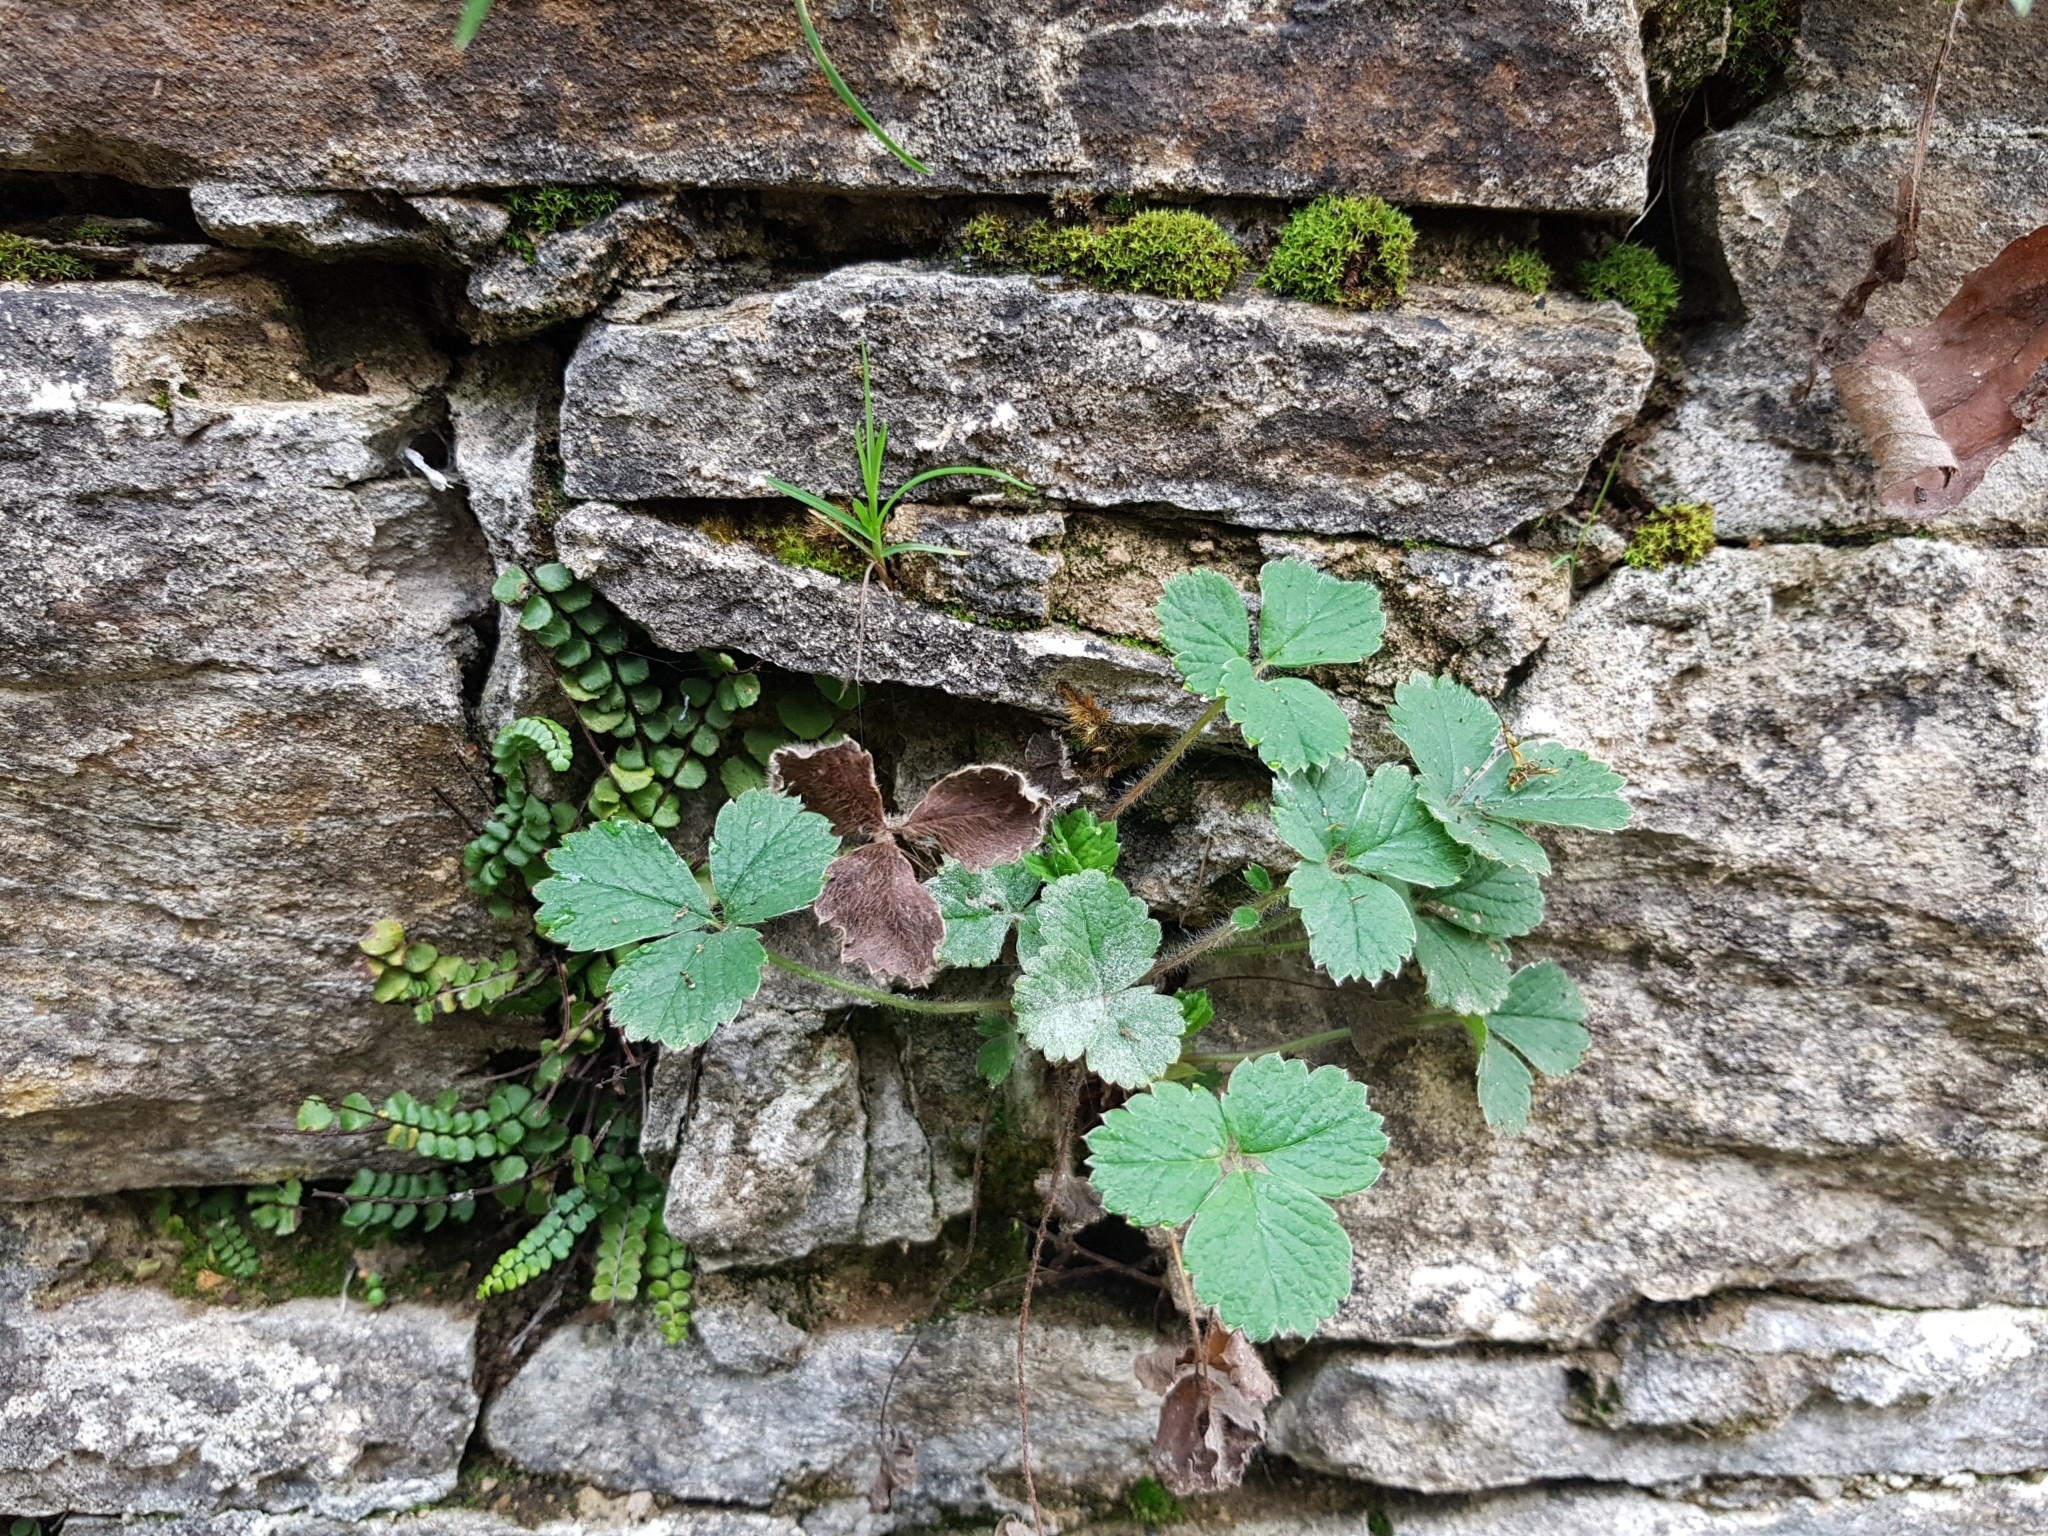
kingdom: Plantae
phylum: Tracheophyta
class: Magnoliopsida
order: Rosales
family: Rosaceae
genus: Potentilla
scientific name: Potentilla sterilis
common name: Barren strawberry
